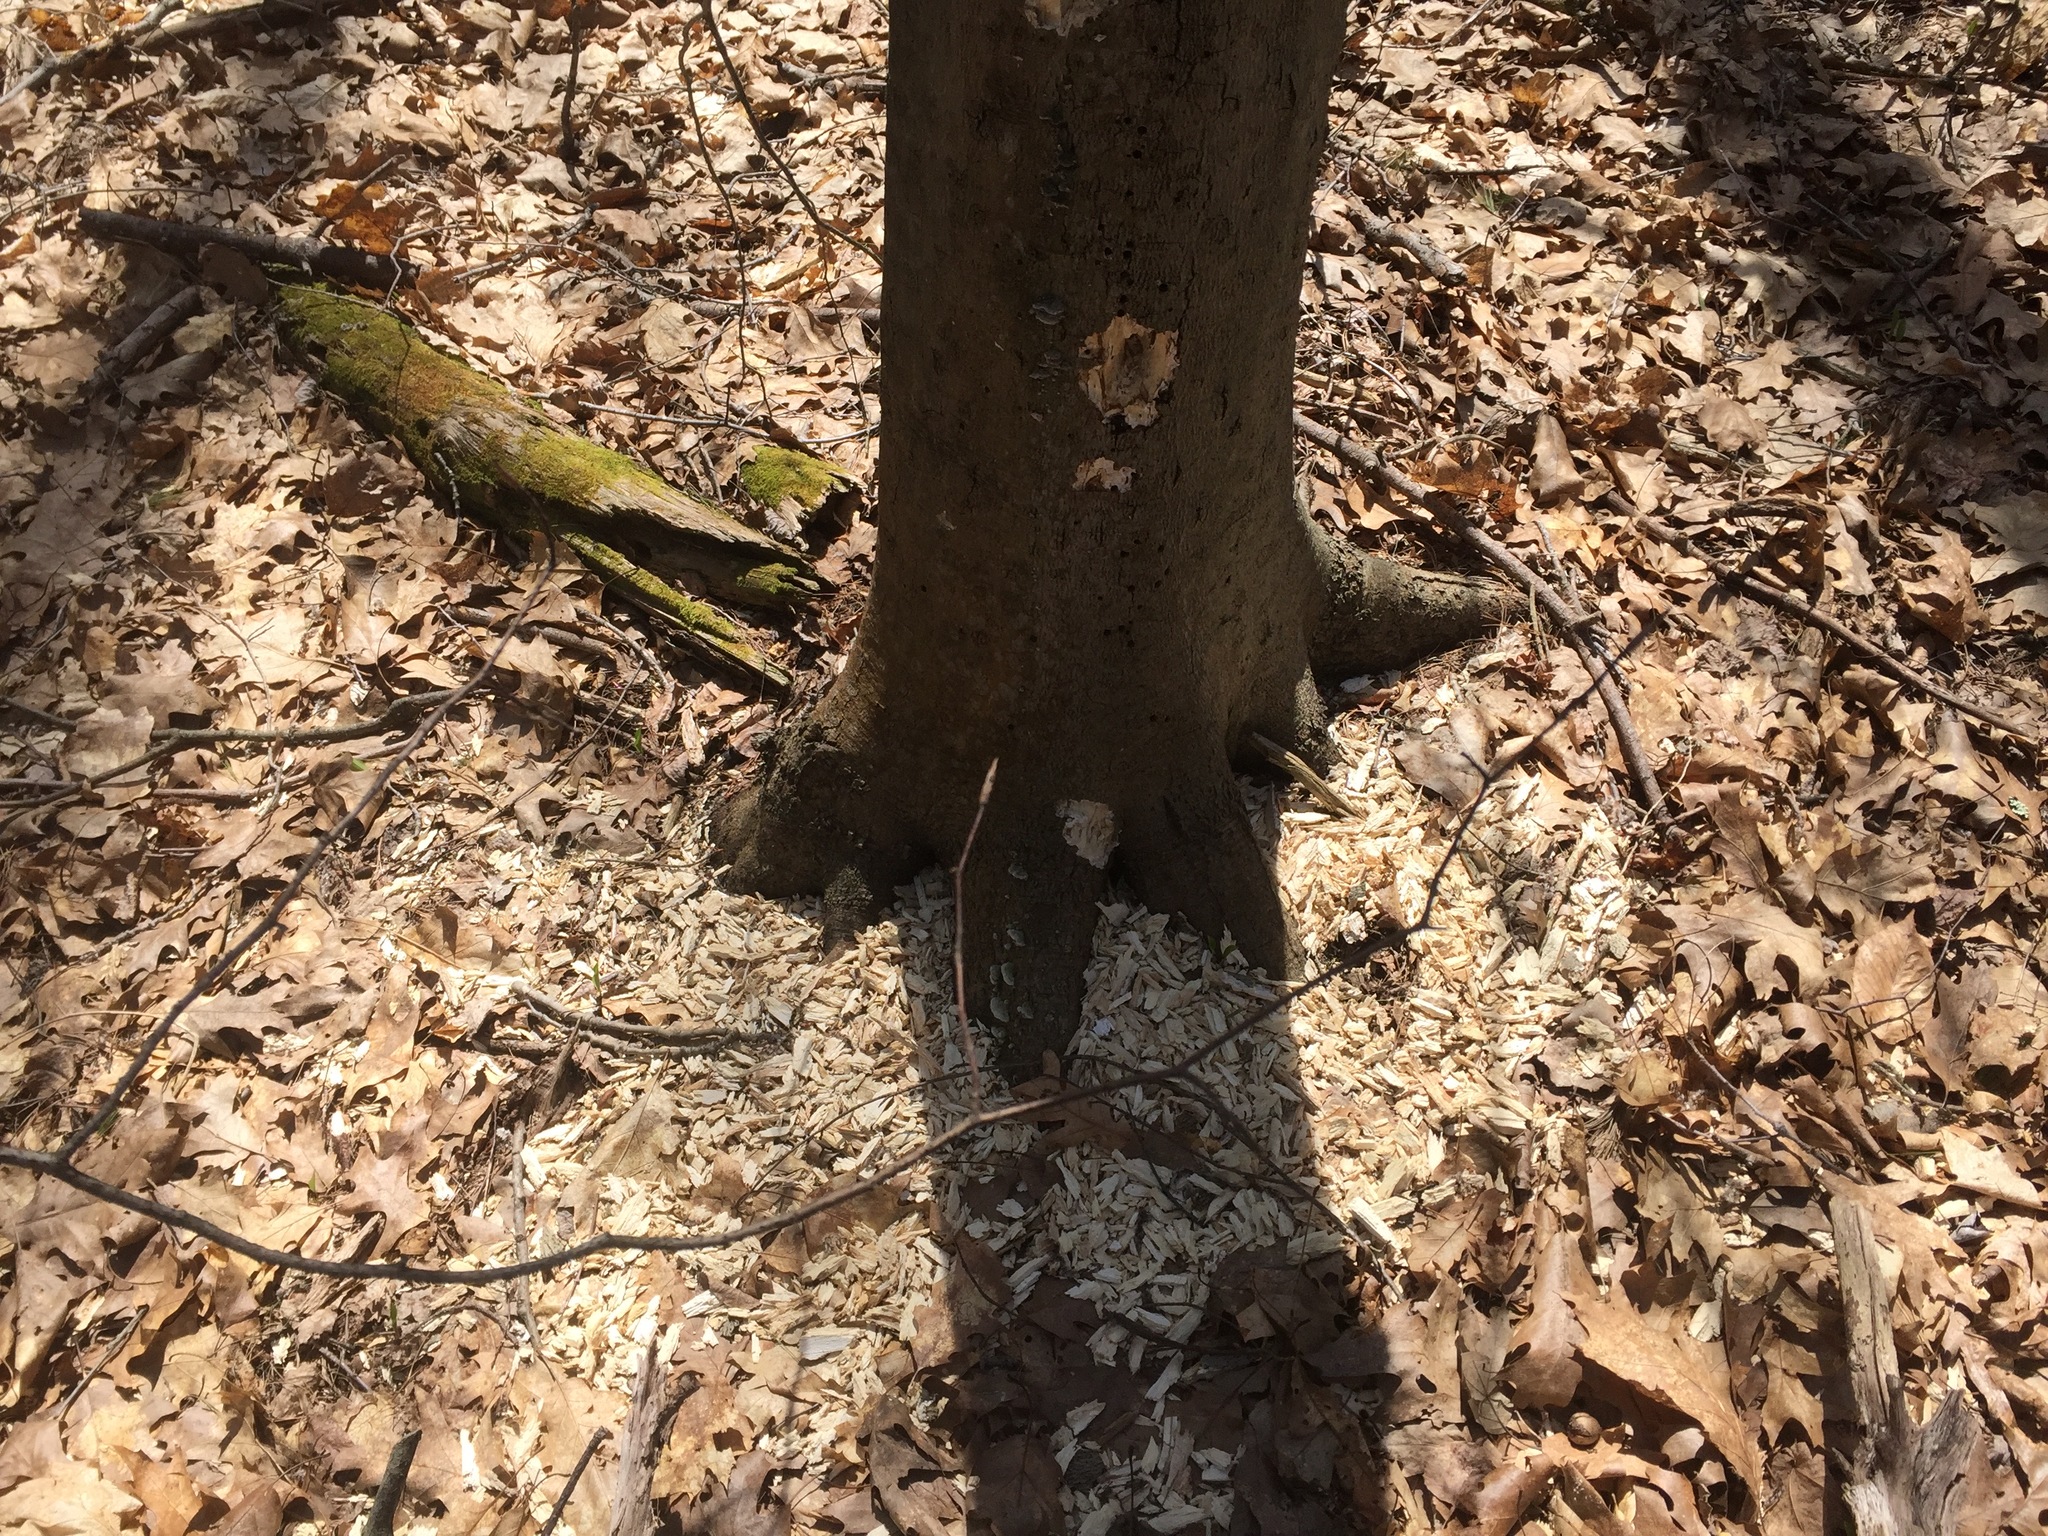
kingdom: Animalia
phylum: Chordata
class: Aves
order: Piciformes
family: Picidae
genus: Dryocopus
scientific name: Dryocopus pileatus
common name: Pileated woodpecker
